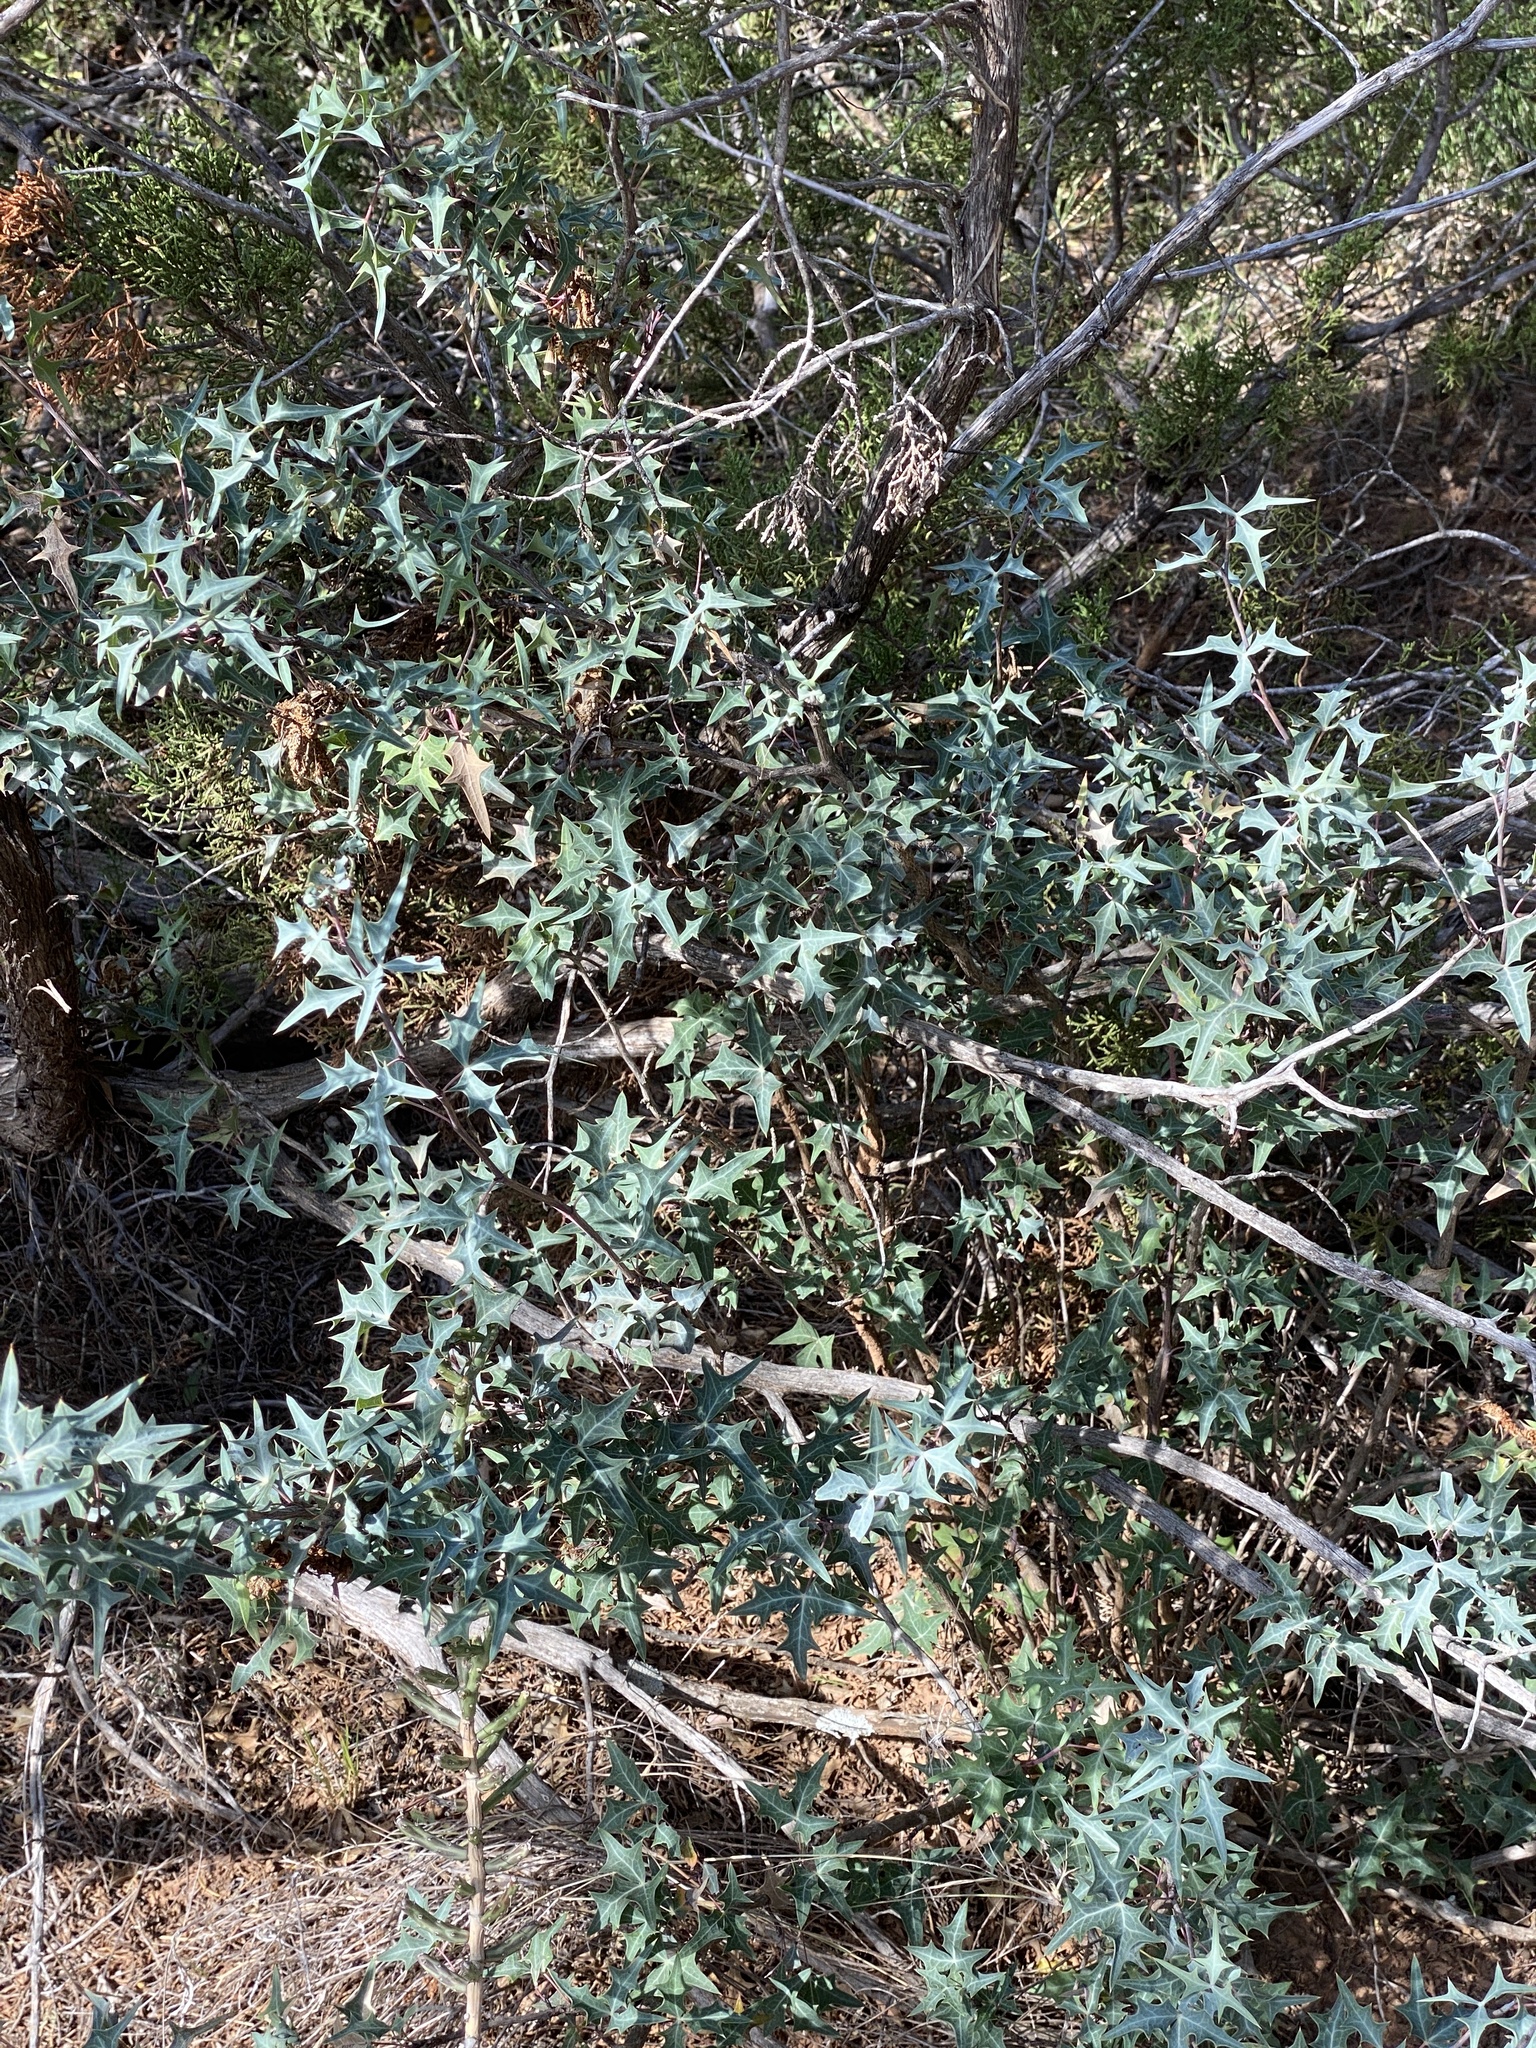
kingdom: Plantae
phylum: Tracheophyta
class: Magnoliopsida
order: Ranunculales
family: Berberidaceae
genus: Alloberberis
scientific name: Alloberberis trifoliolata
